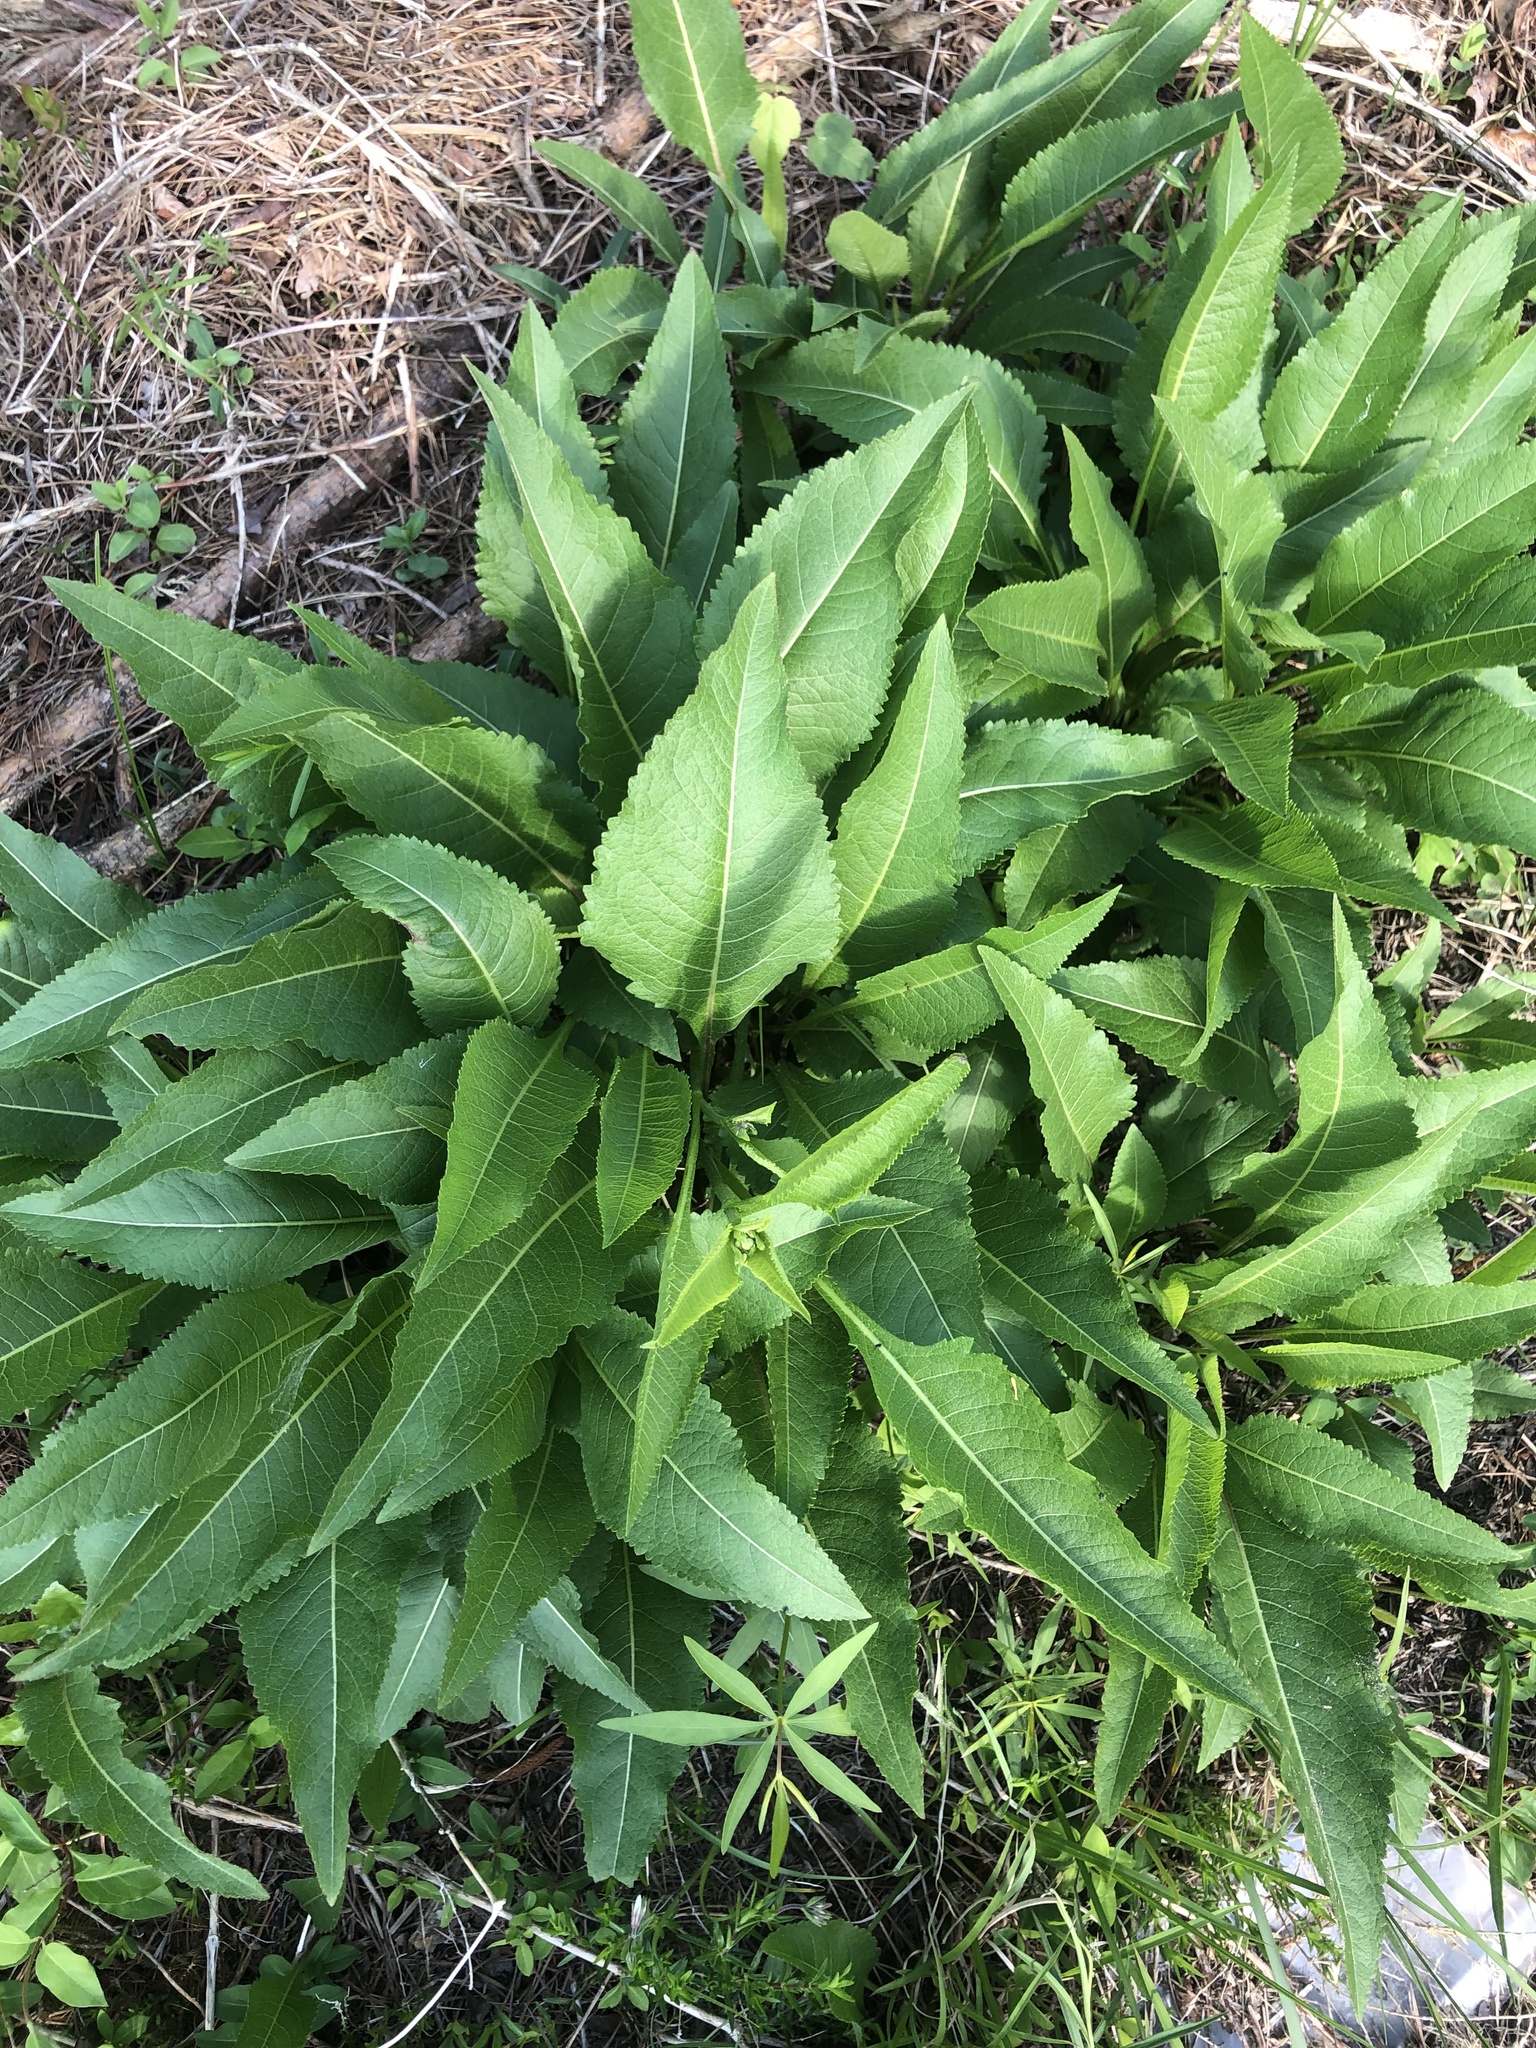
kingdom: Plantae
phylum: Tracheophyta
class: Magnoliopsida
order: Asterales
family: Asteraceae
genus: Parthenium
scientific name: Parthenium integrifolium
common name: American feverfew
